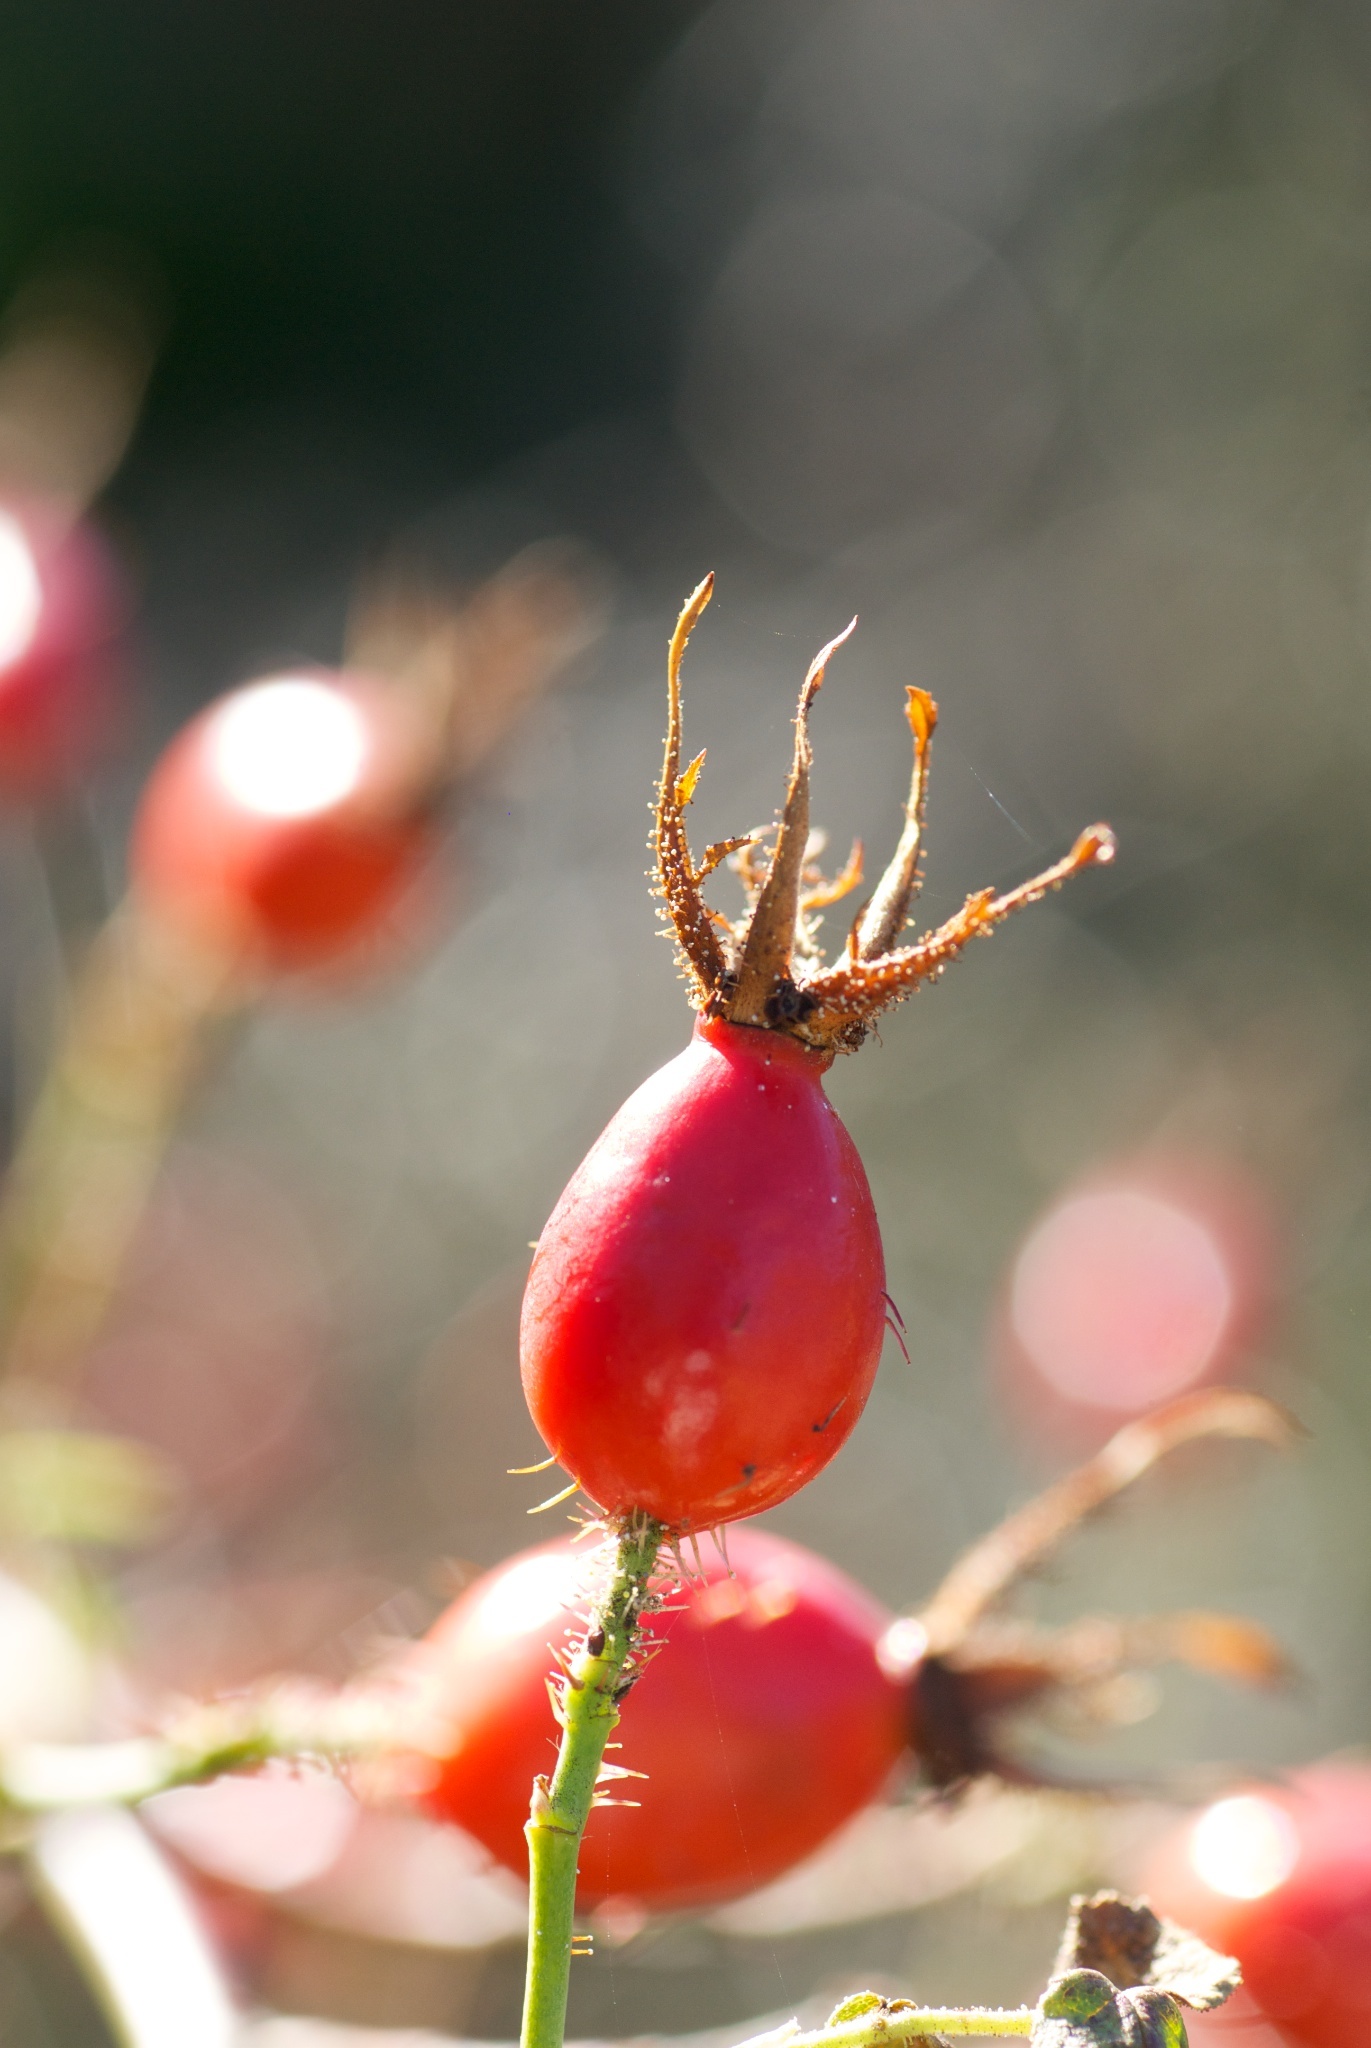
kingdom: Plantae
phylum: Tracheophyta
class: Magnoliopsida
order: Rosales
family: Rosaceae
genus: Rosa
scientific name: Rosa rubiginosa
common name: Sweet-briar
